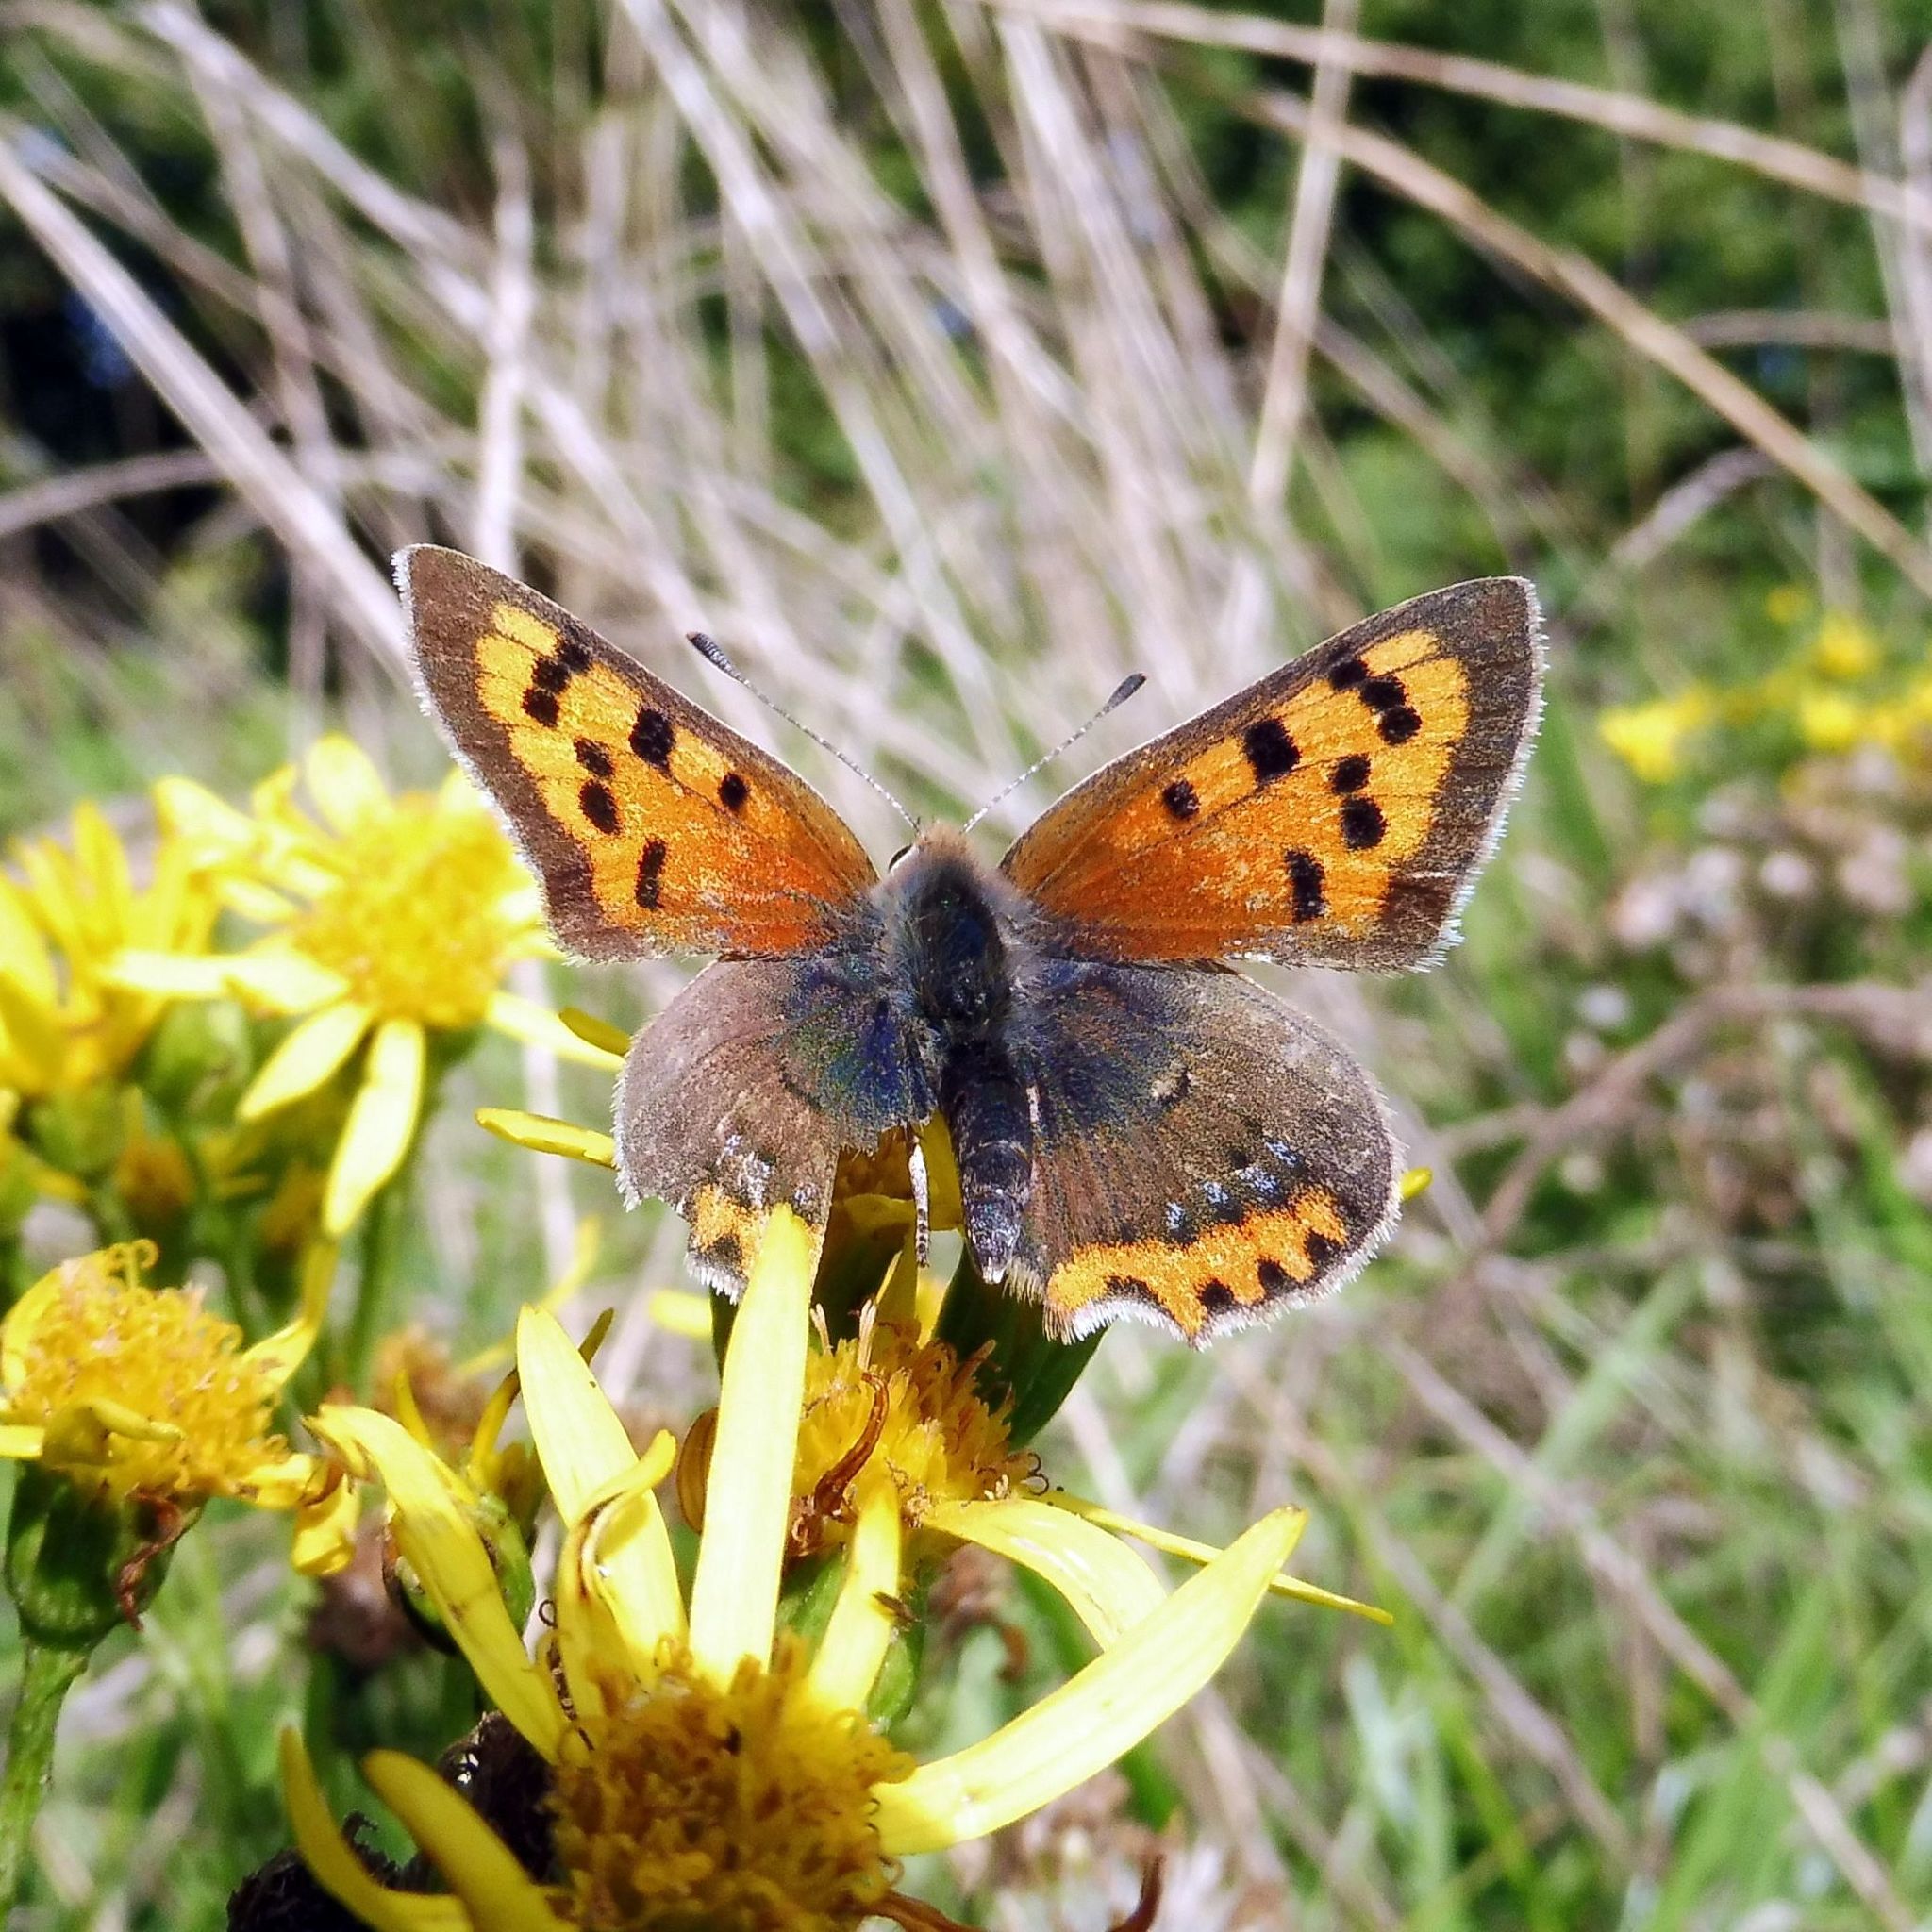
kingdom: Animalia
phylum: Arthropoda
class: Insecta
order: Lepidoptera
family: Lycaenidae
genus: Lycaena
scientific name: Lycaena phlaeas
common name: Small copper
